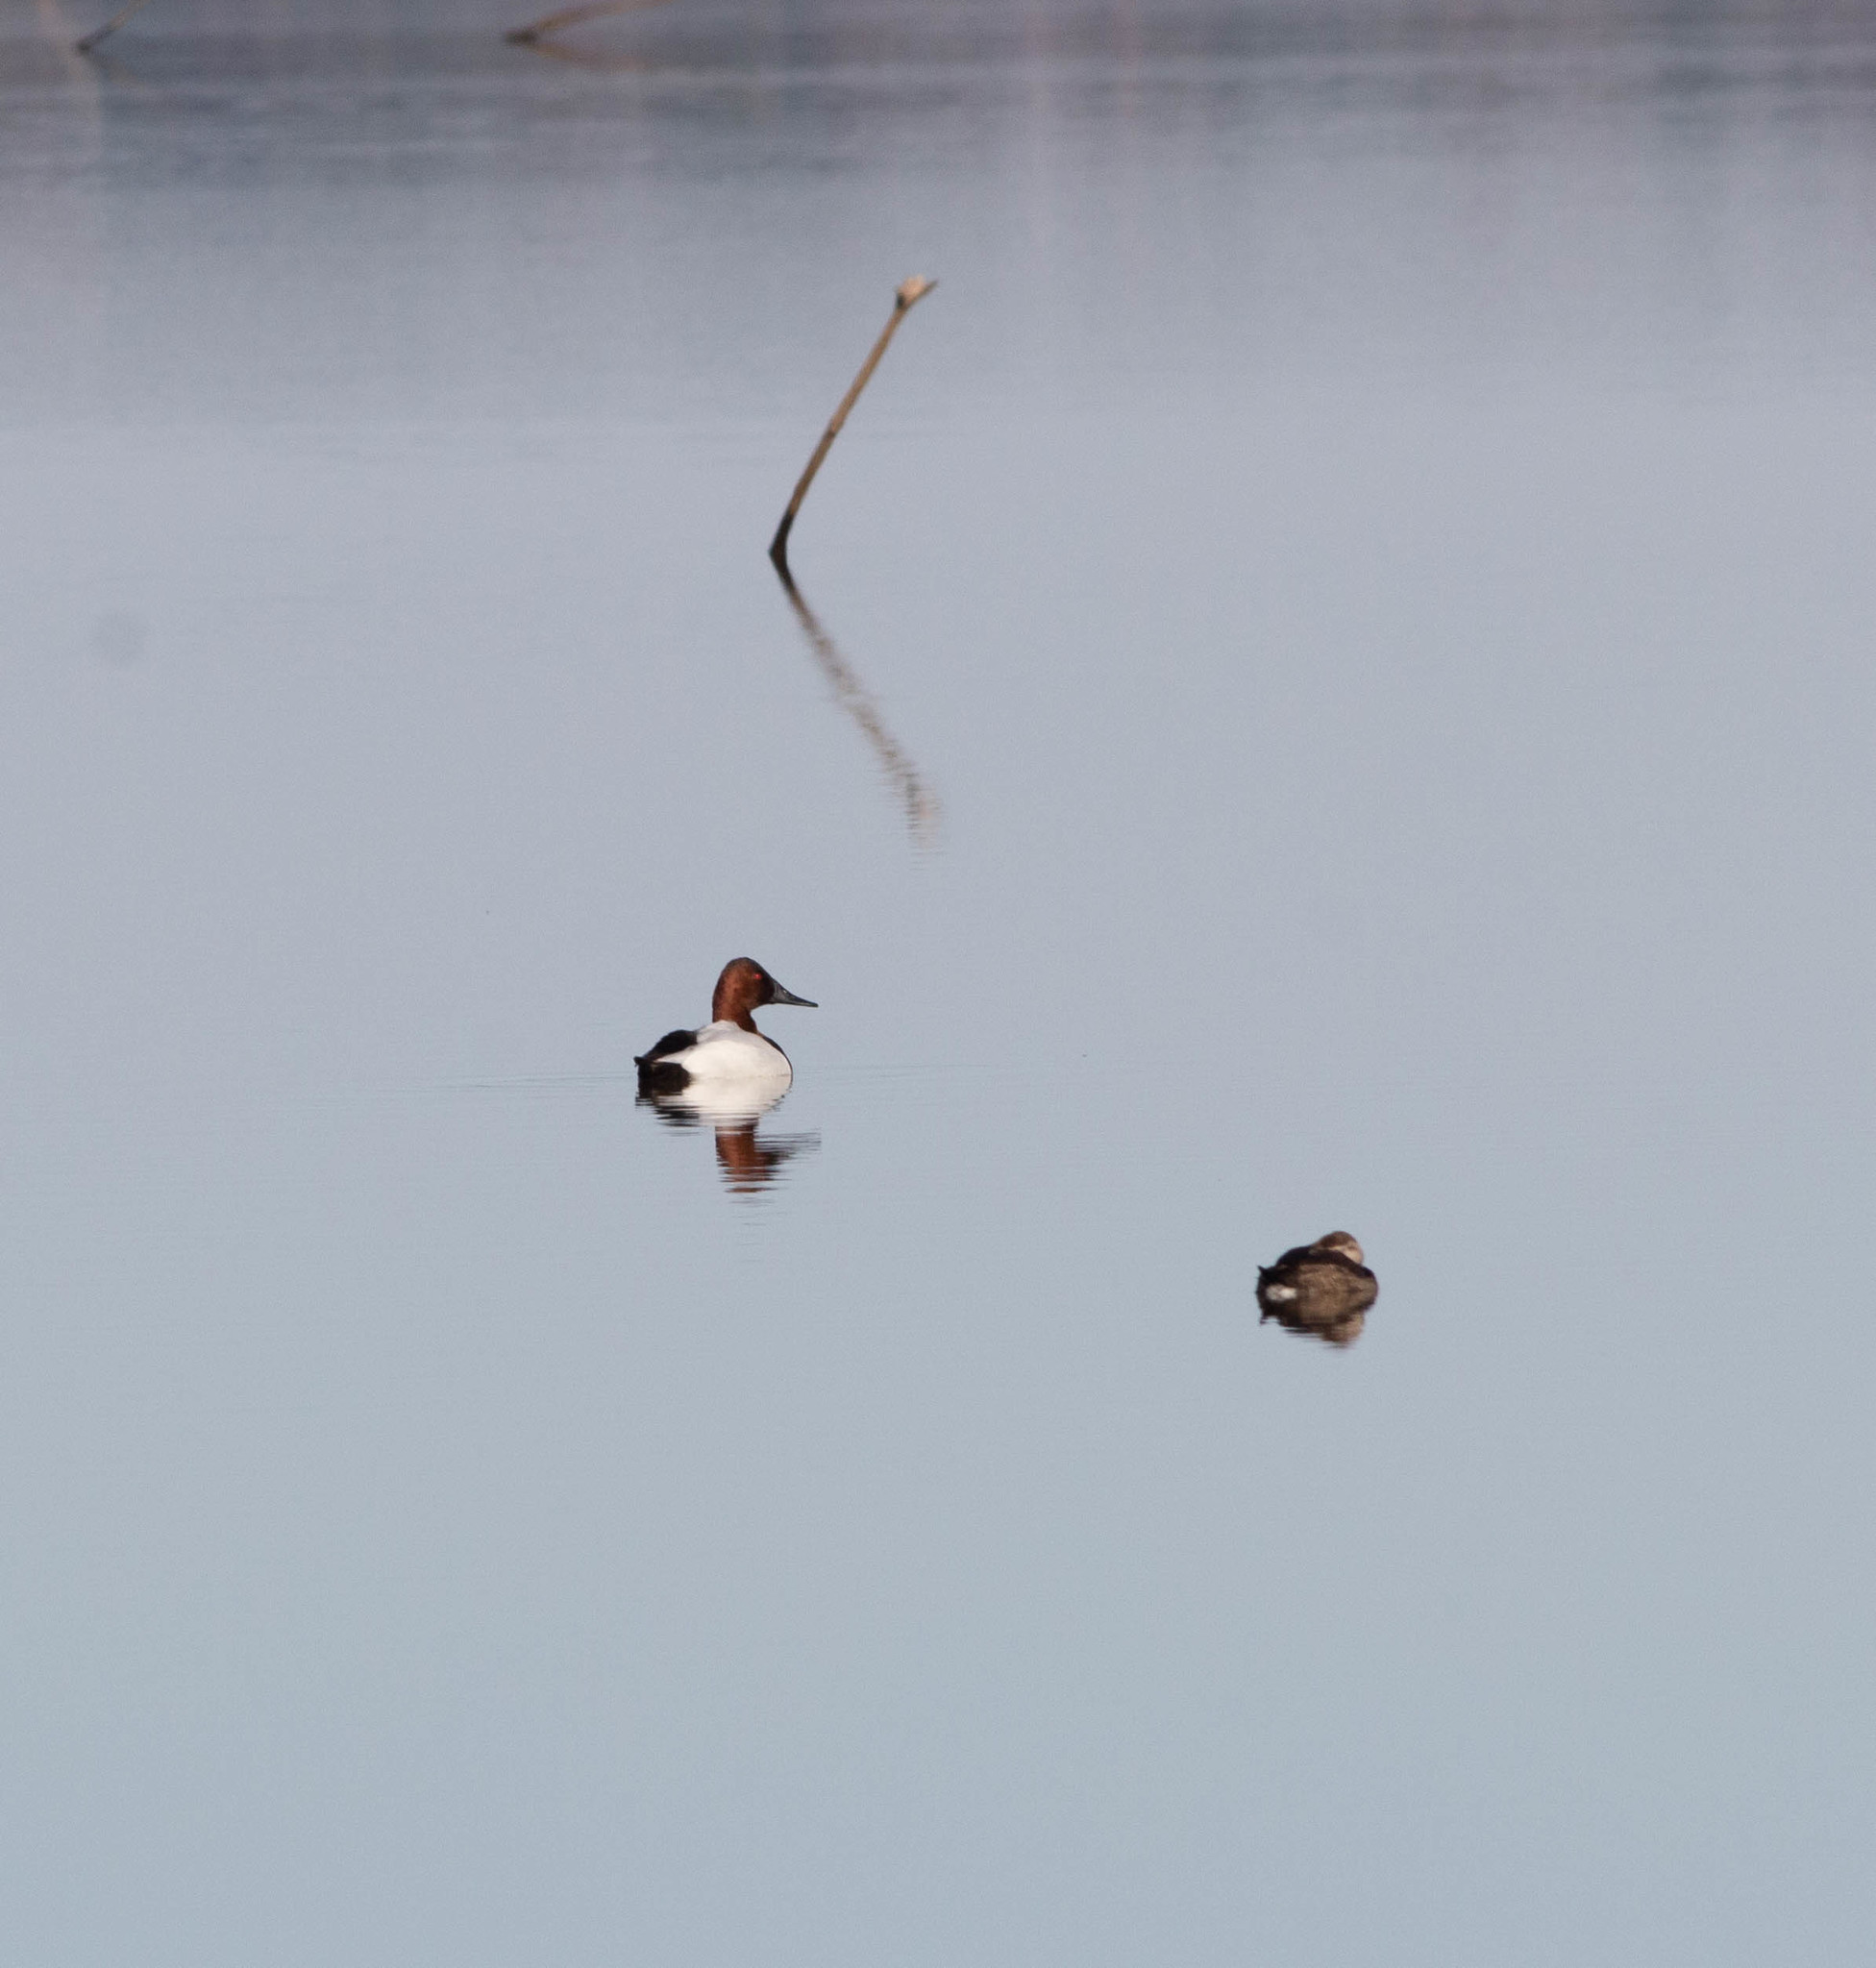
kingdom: Animalia
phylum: Chordata
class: Aves
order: Anseriformes
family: Anatidae
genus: Aythya
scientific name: Aythya valisineria
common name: Canvasback
